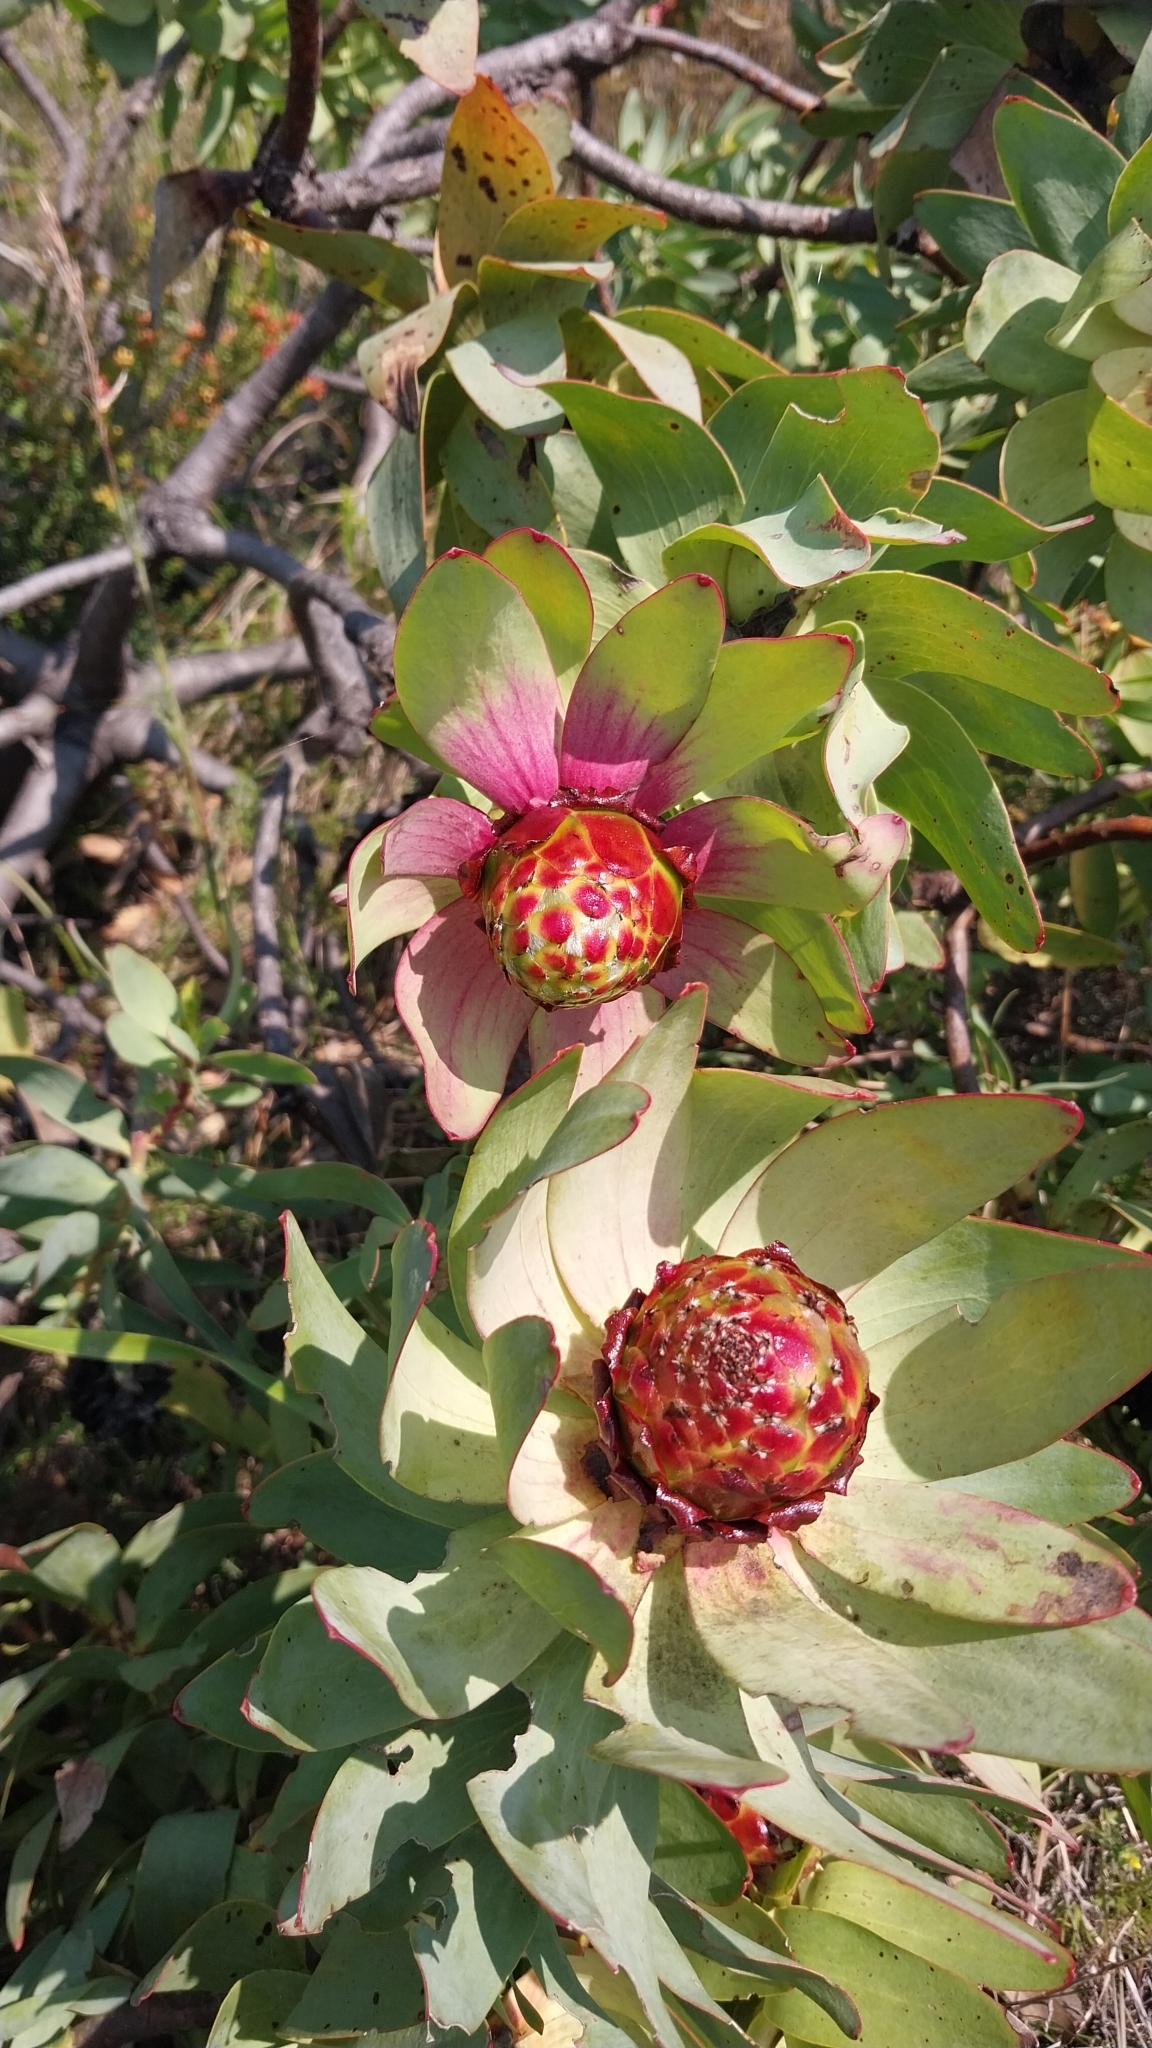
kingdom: Plantae
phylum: Tracheophyta
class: Magnoliopsida
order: Proteales
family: Proteaceae
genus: Leucadendron
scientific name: Leucadendron tinctum
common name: Spicy conebush
